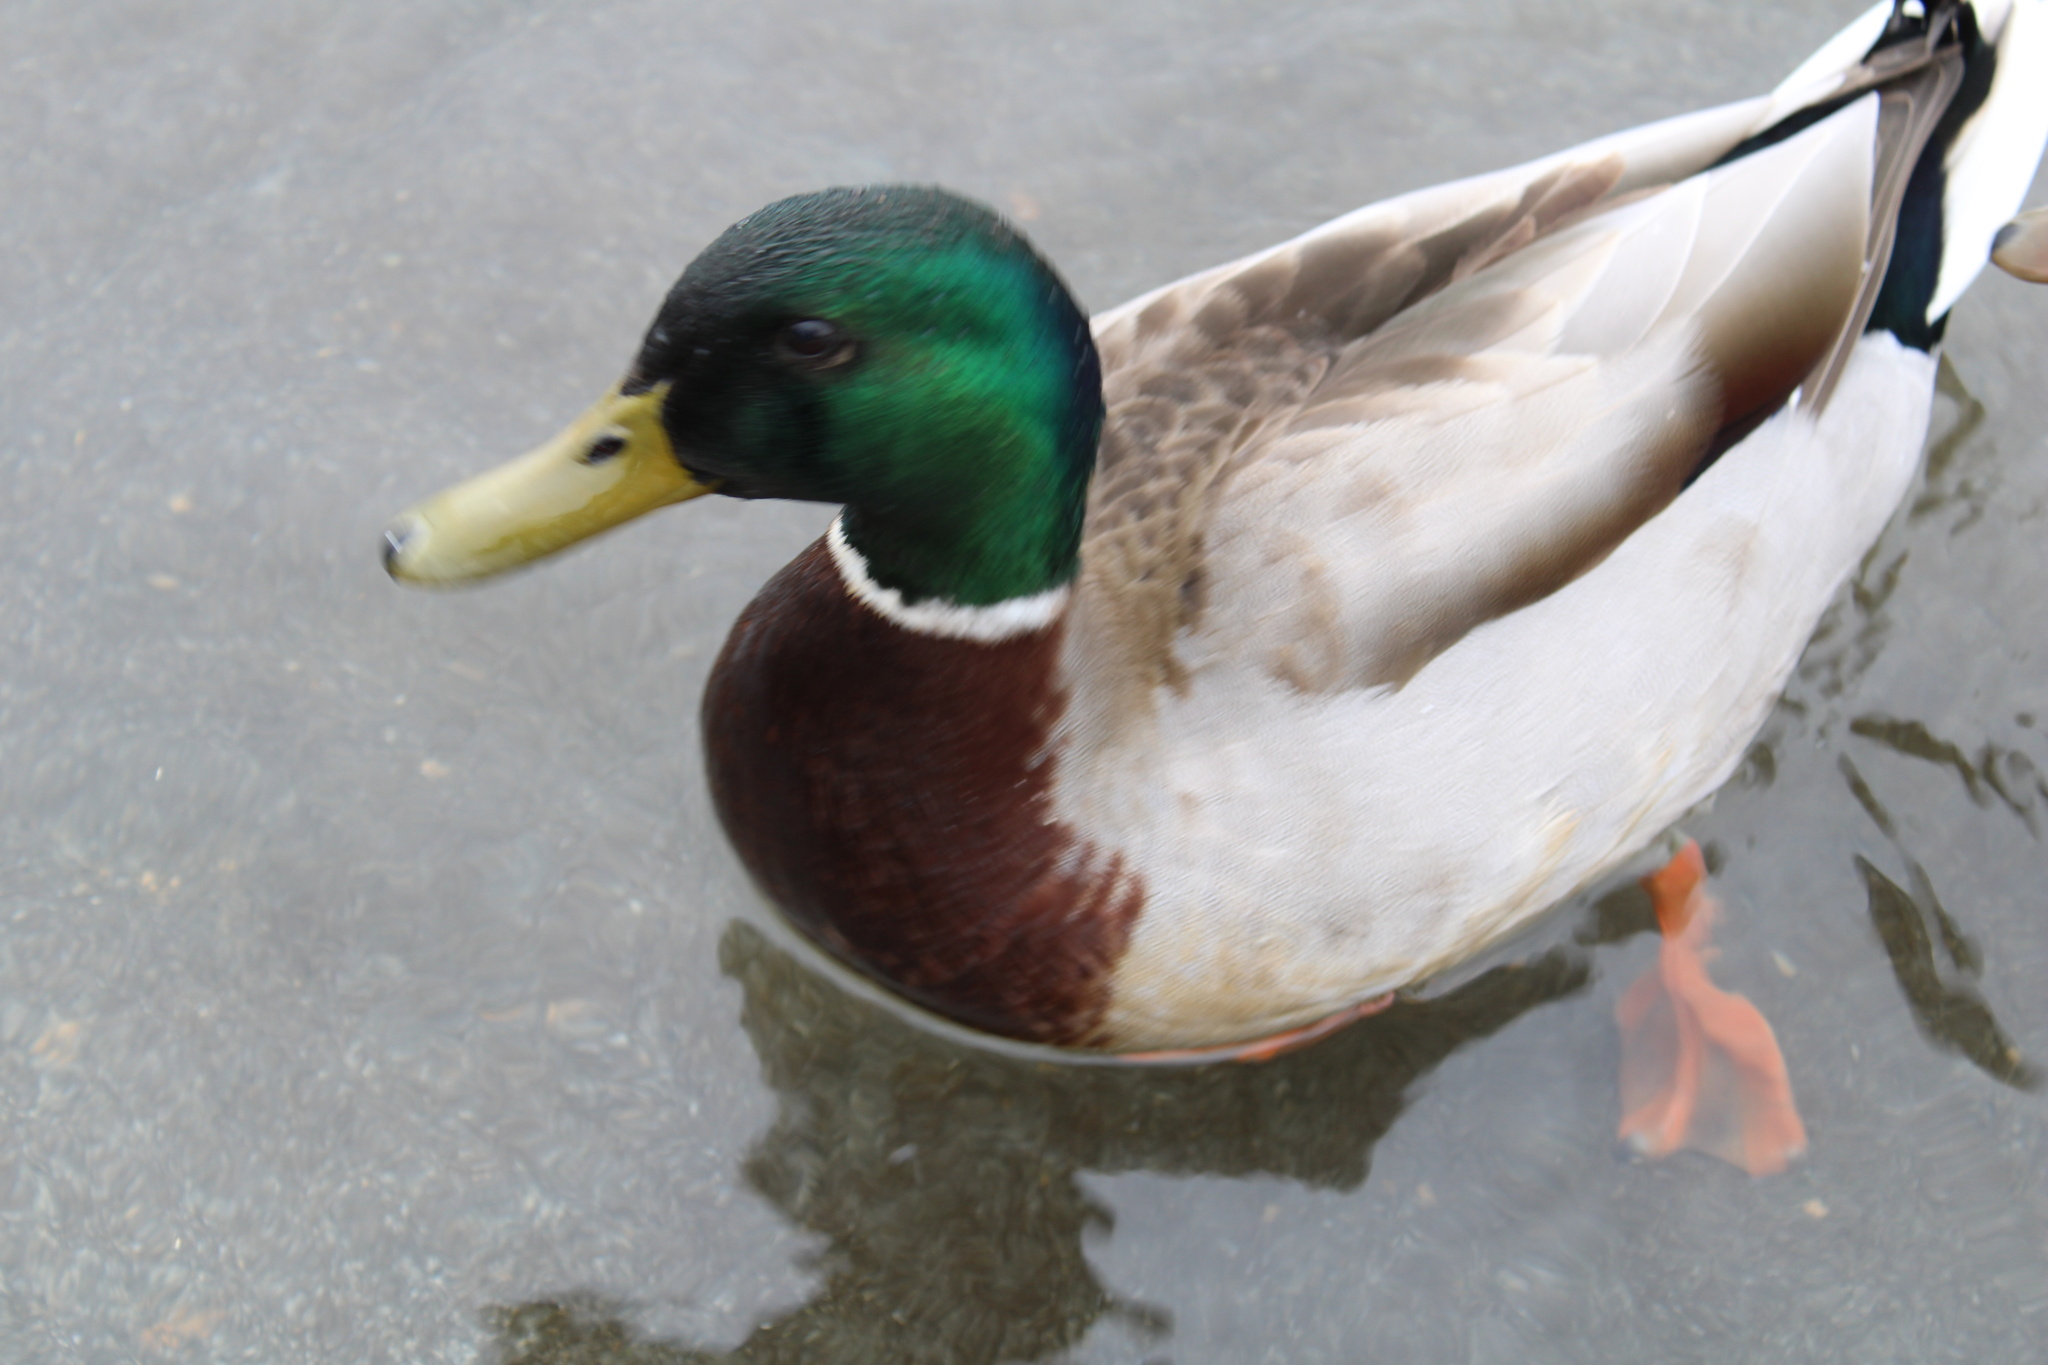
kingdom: Animalia
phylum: Chordata
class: Aves
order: Anseriformes
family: Anatidae
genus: Anas
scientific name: Anas platyrhynchos
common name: Mallard
